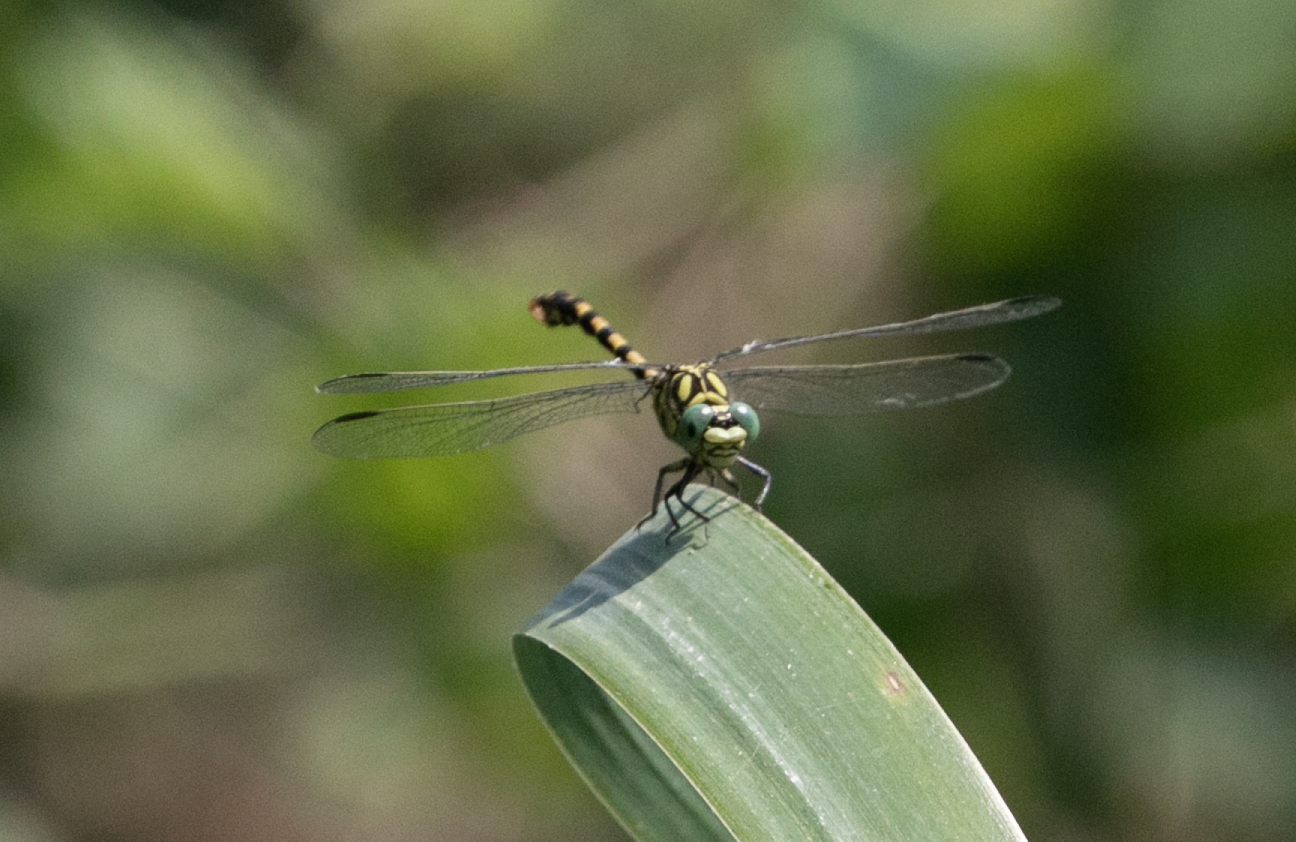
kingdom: Animalia
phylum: Arthropoda
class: Insecta
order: Odonata
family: Gomphidae
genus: Onychogomphus
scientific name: Onychogomphus forcipatus
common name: Small pincertail
